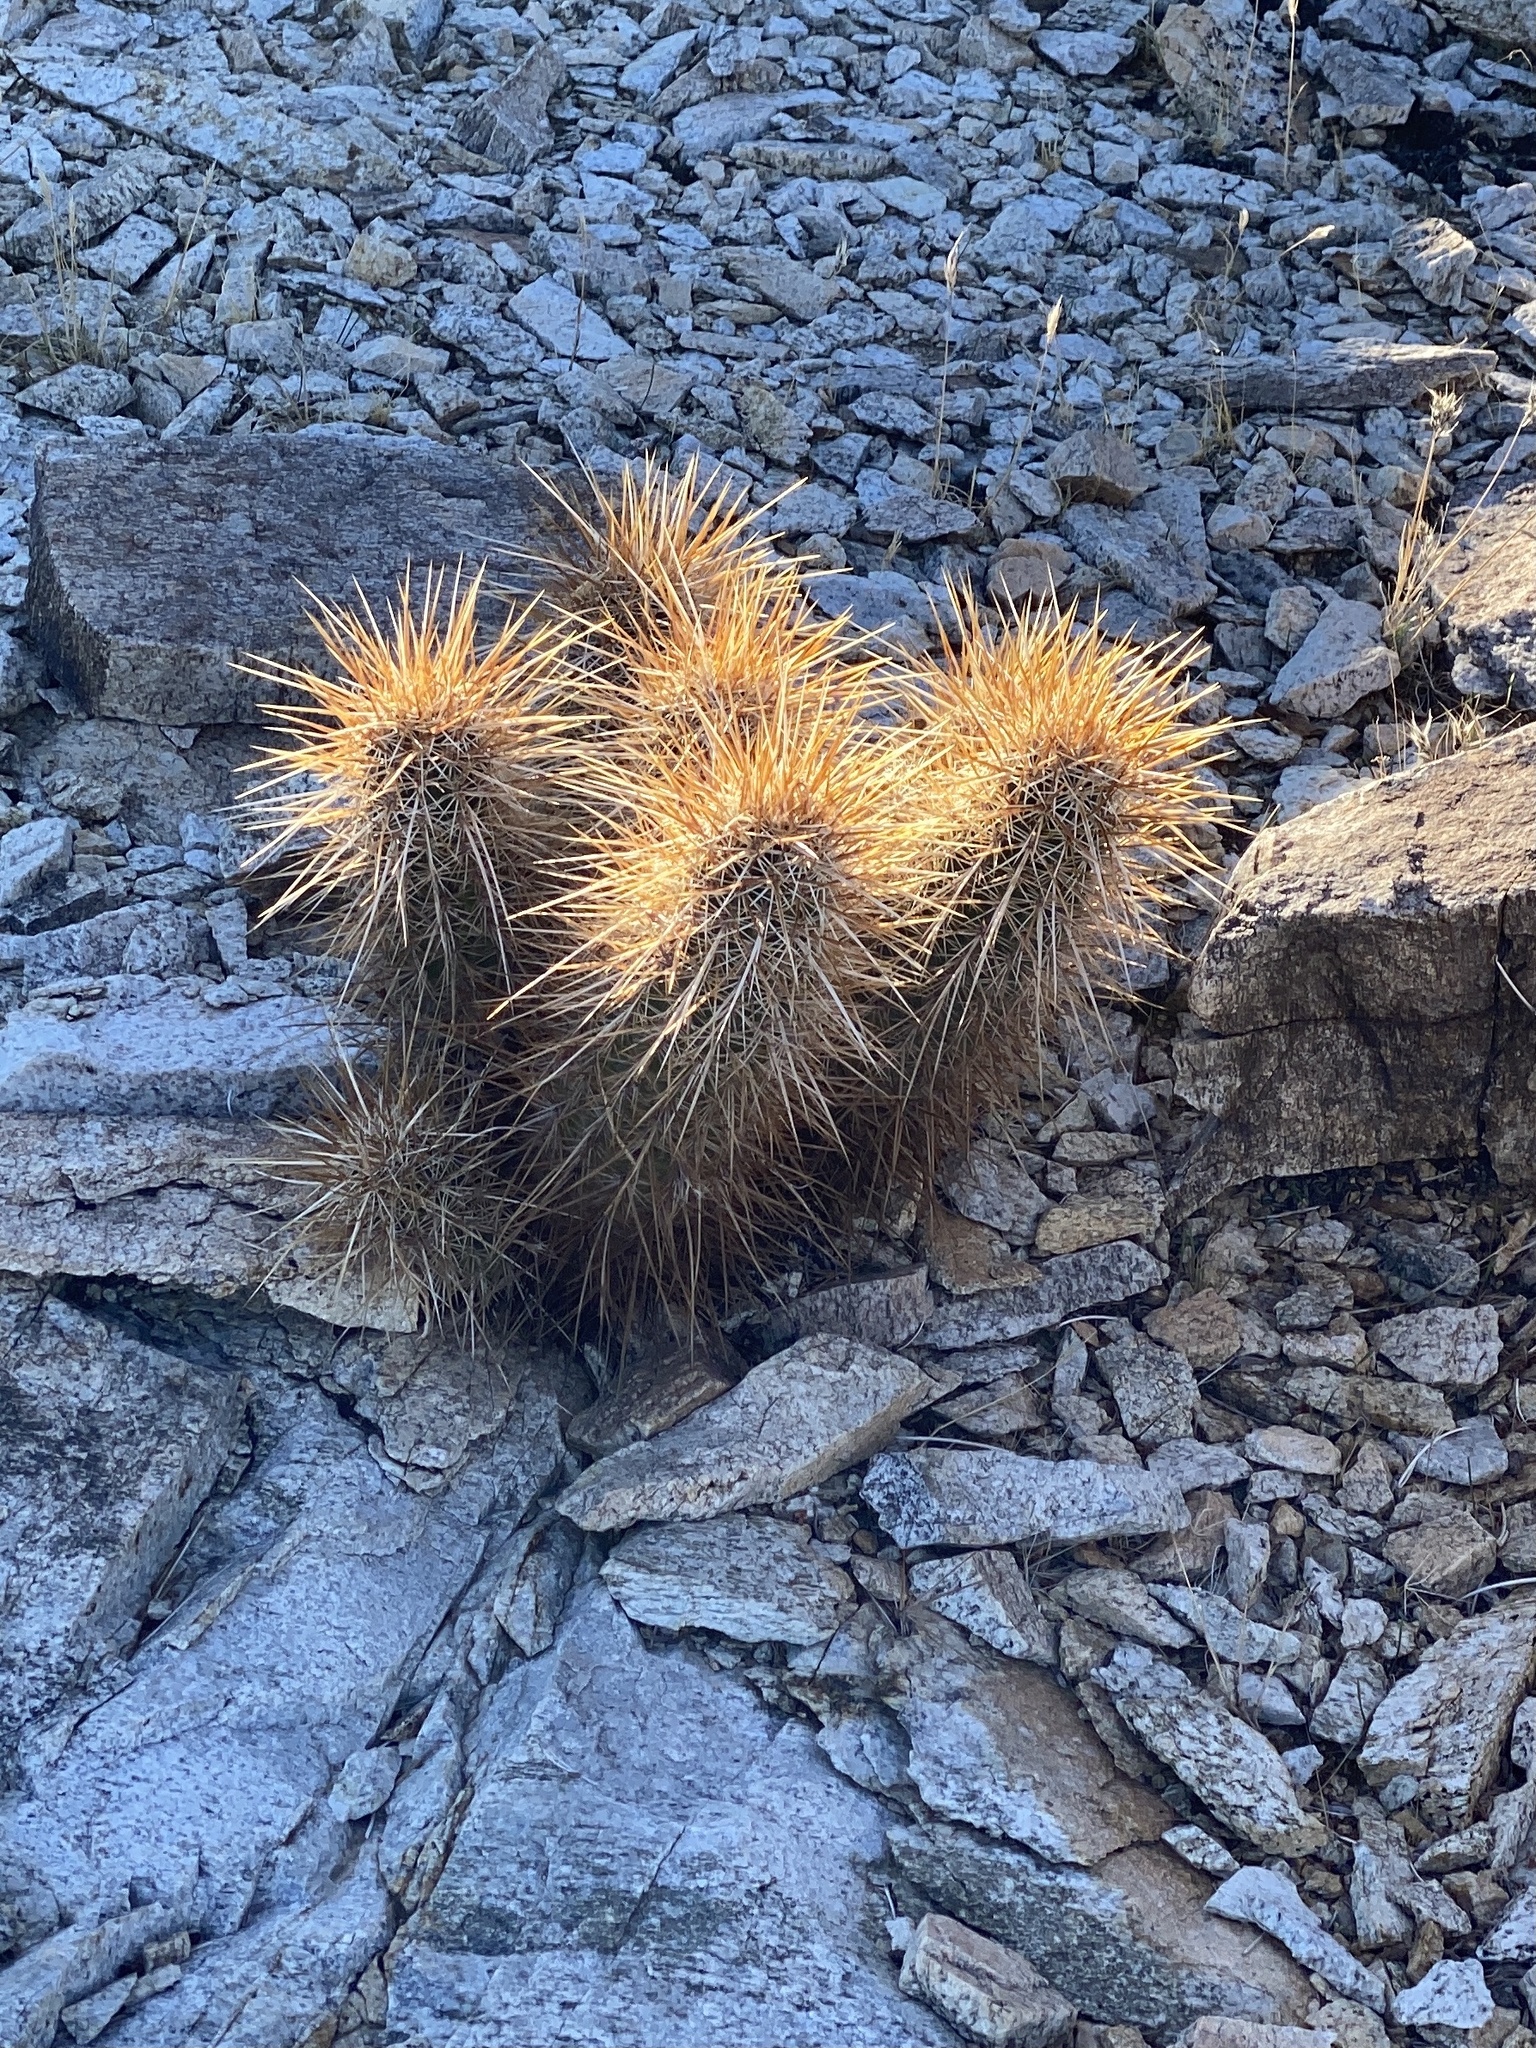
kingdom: Plantae
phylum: Tracheophyta
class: Magnoliopsida
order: Caryophyllales
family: Cactaceae
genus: Echinocereus
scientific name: Echinocereus engelmannii
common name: Engelmann's hedgehog cactus
